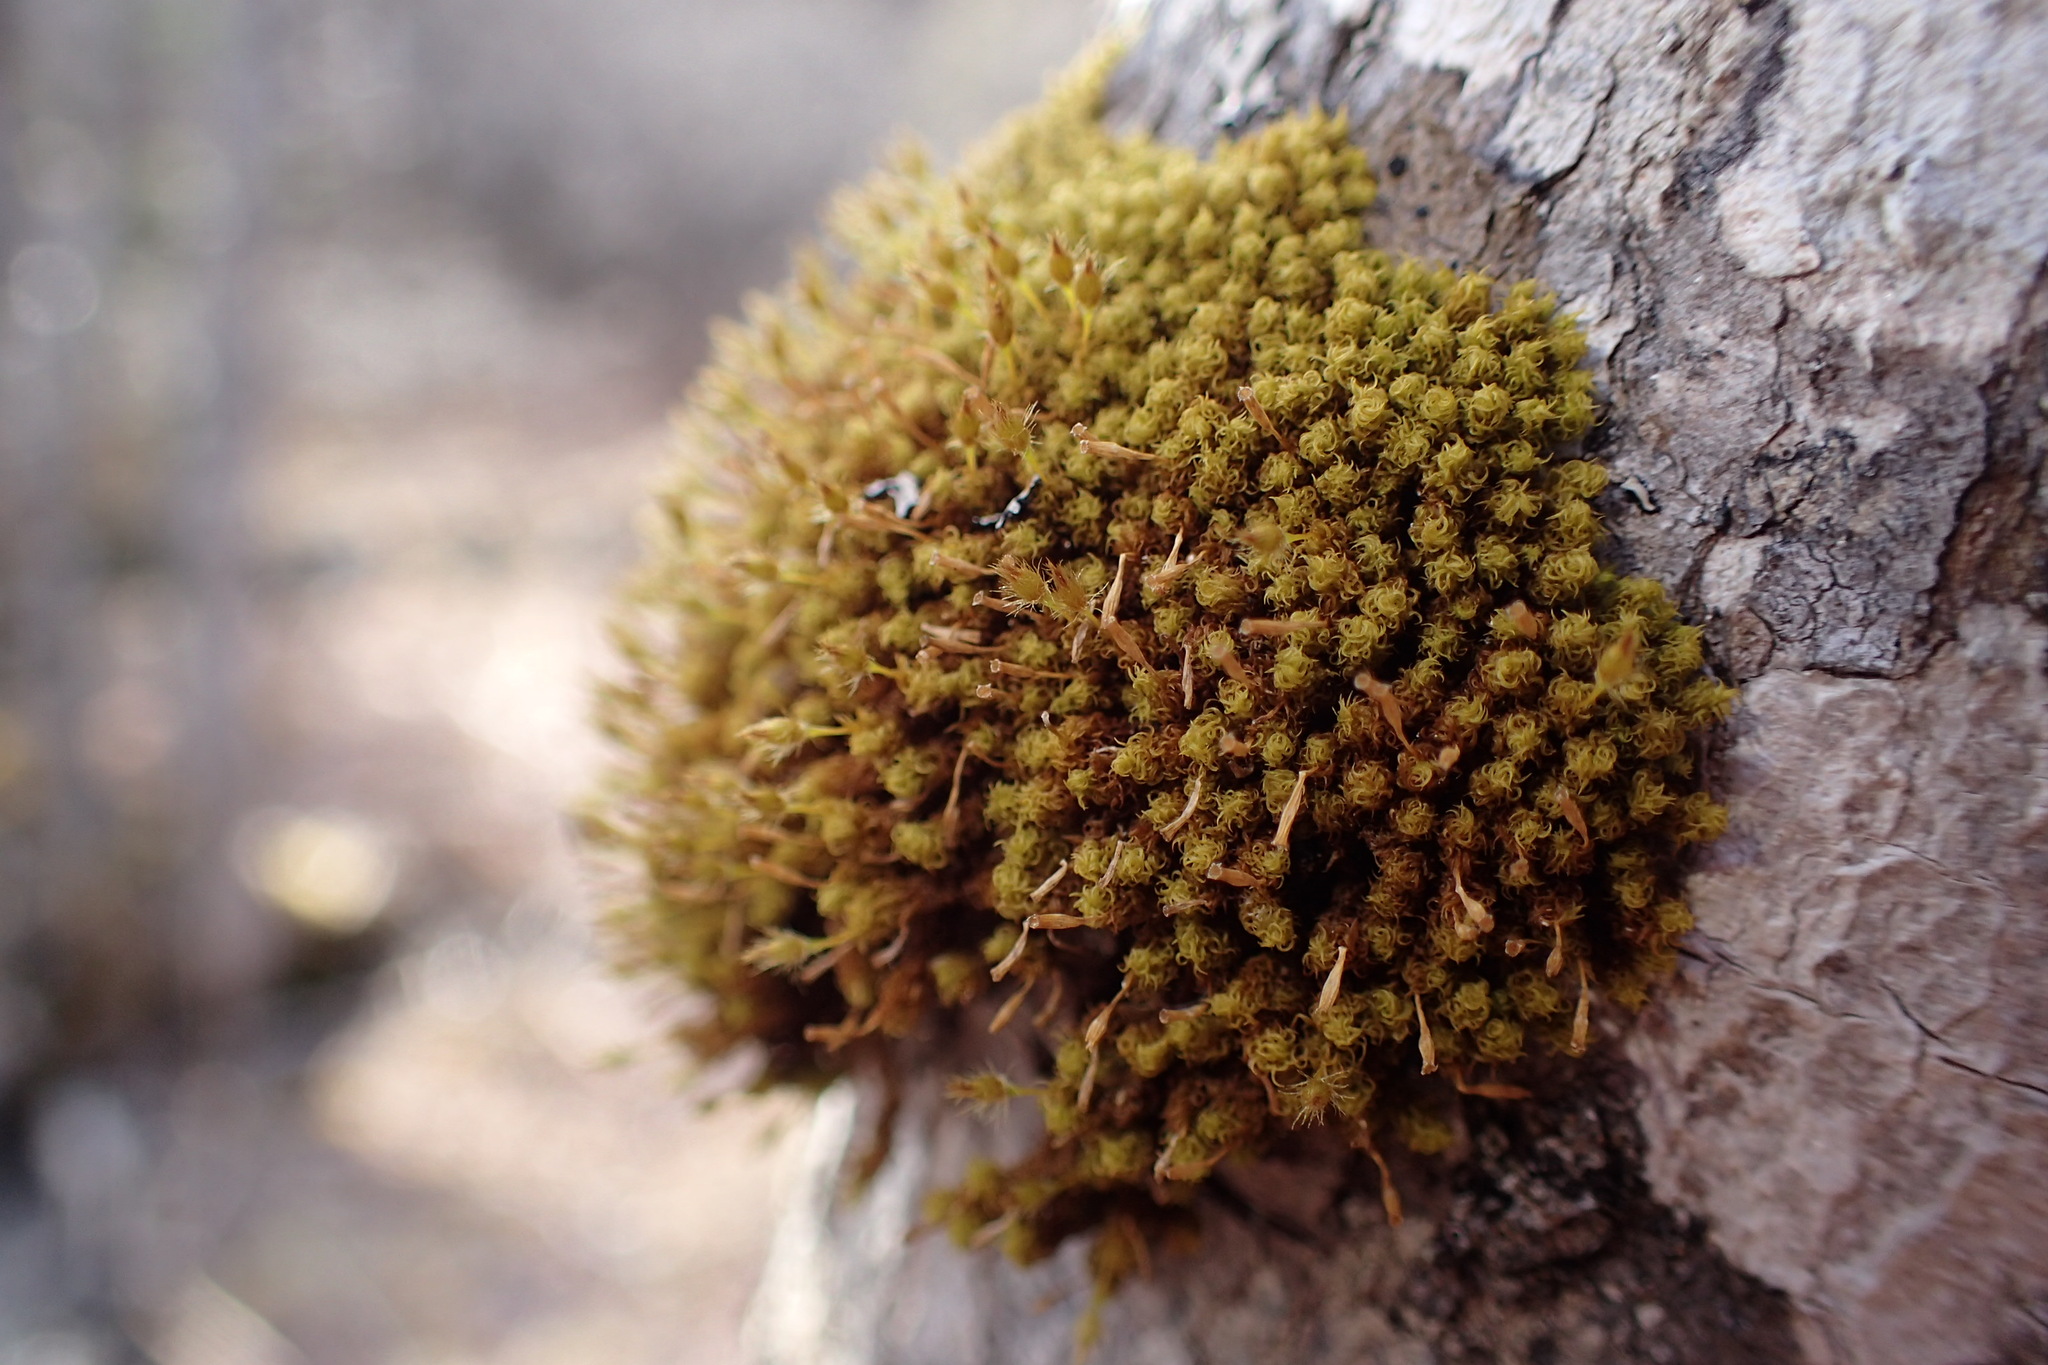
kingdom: Plantae
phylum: Bryophyta
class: Bryopsida
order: Orthotrichales
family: Orthotrichaceae
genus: Ulota
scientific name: Ulota crispa
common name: Crisped pincushion moss
